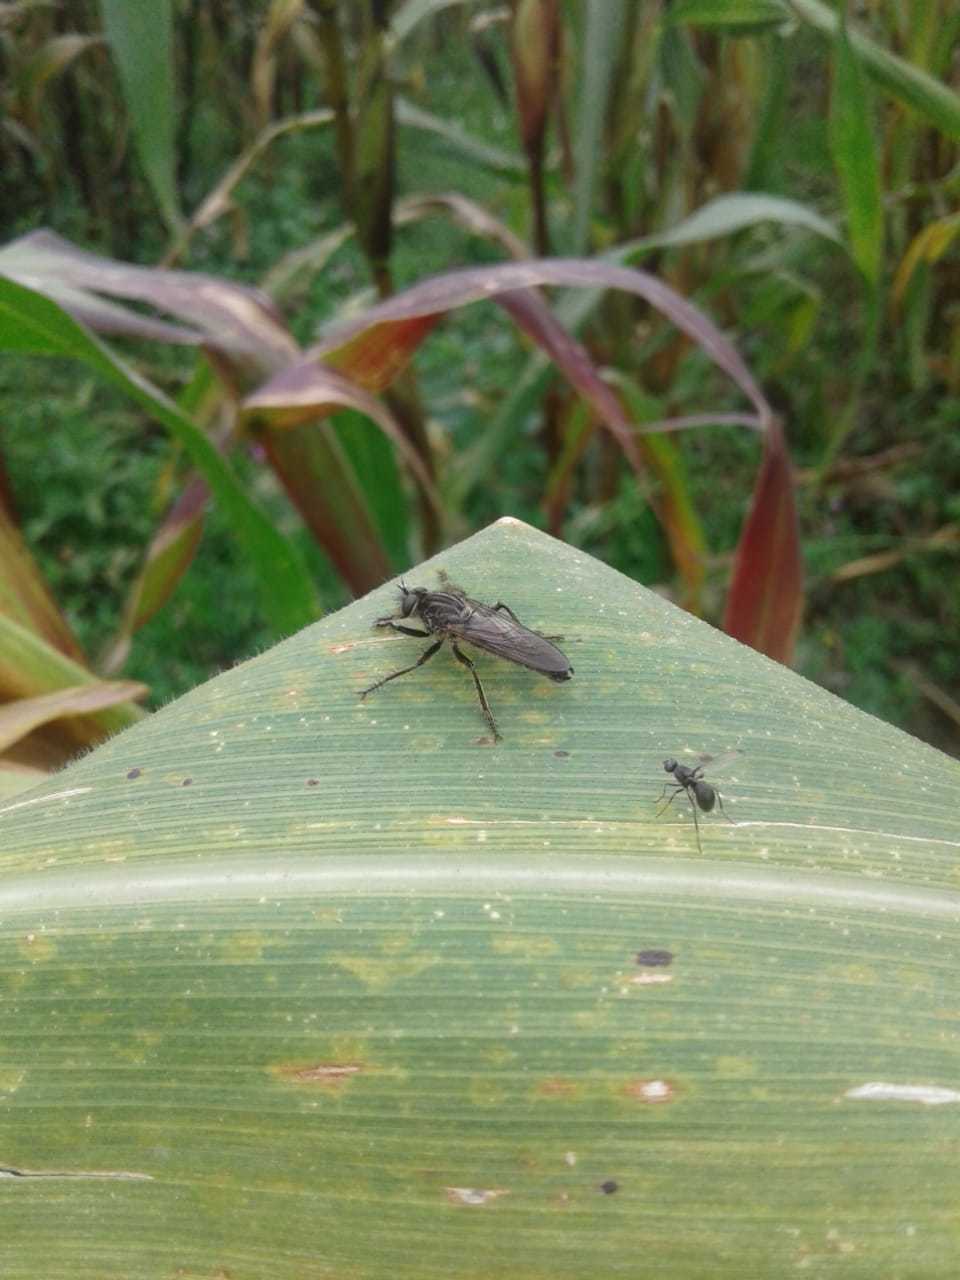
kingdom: Animalia
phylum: Arthropoda
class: Insecta
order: Diptera
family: Asilidae
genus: Epipamponeurus
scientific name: Epipamponeurus americanus
